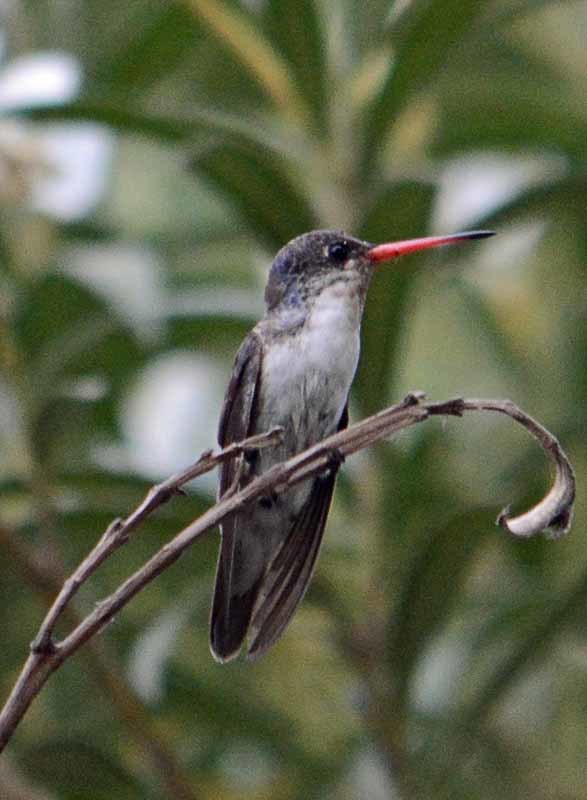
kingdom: Animalia
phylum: Chordata
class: Aves
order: Apodiformes
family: Trochilidae
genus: Leucolia
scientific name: Leucolia violiceps
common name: Violet-crowned hummingbird
